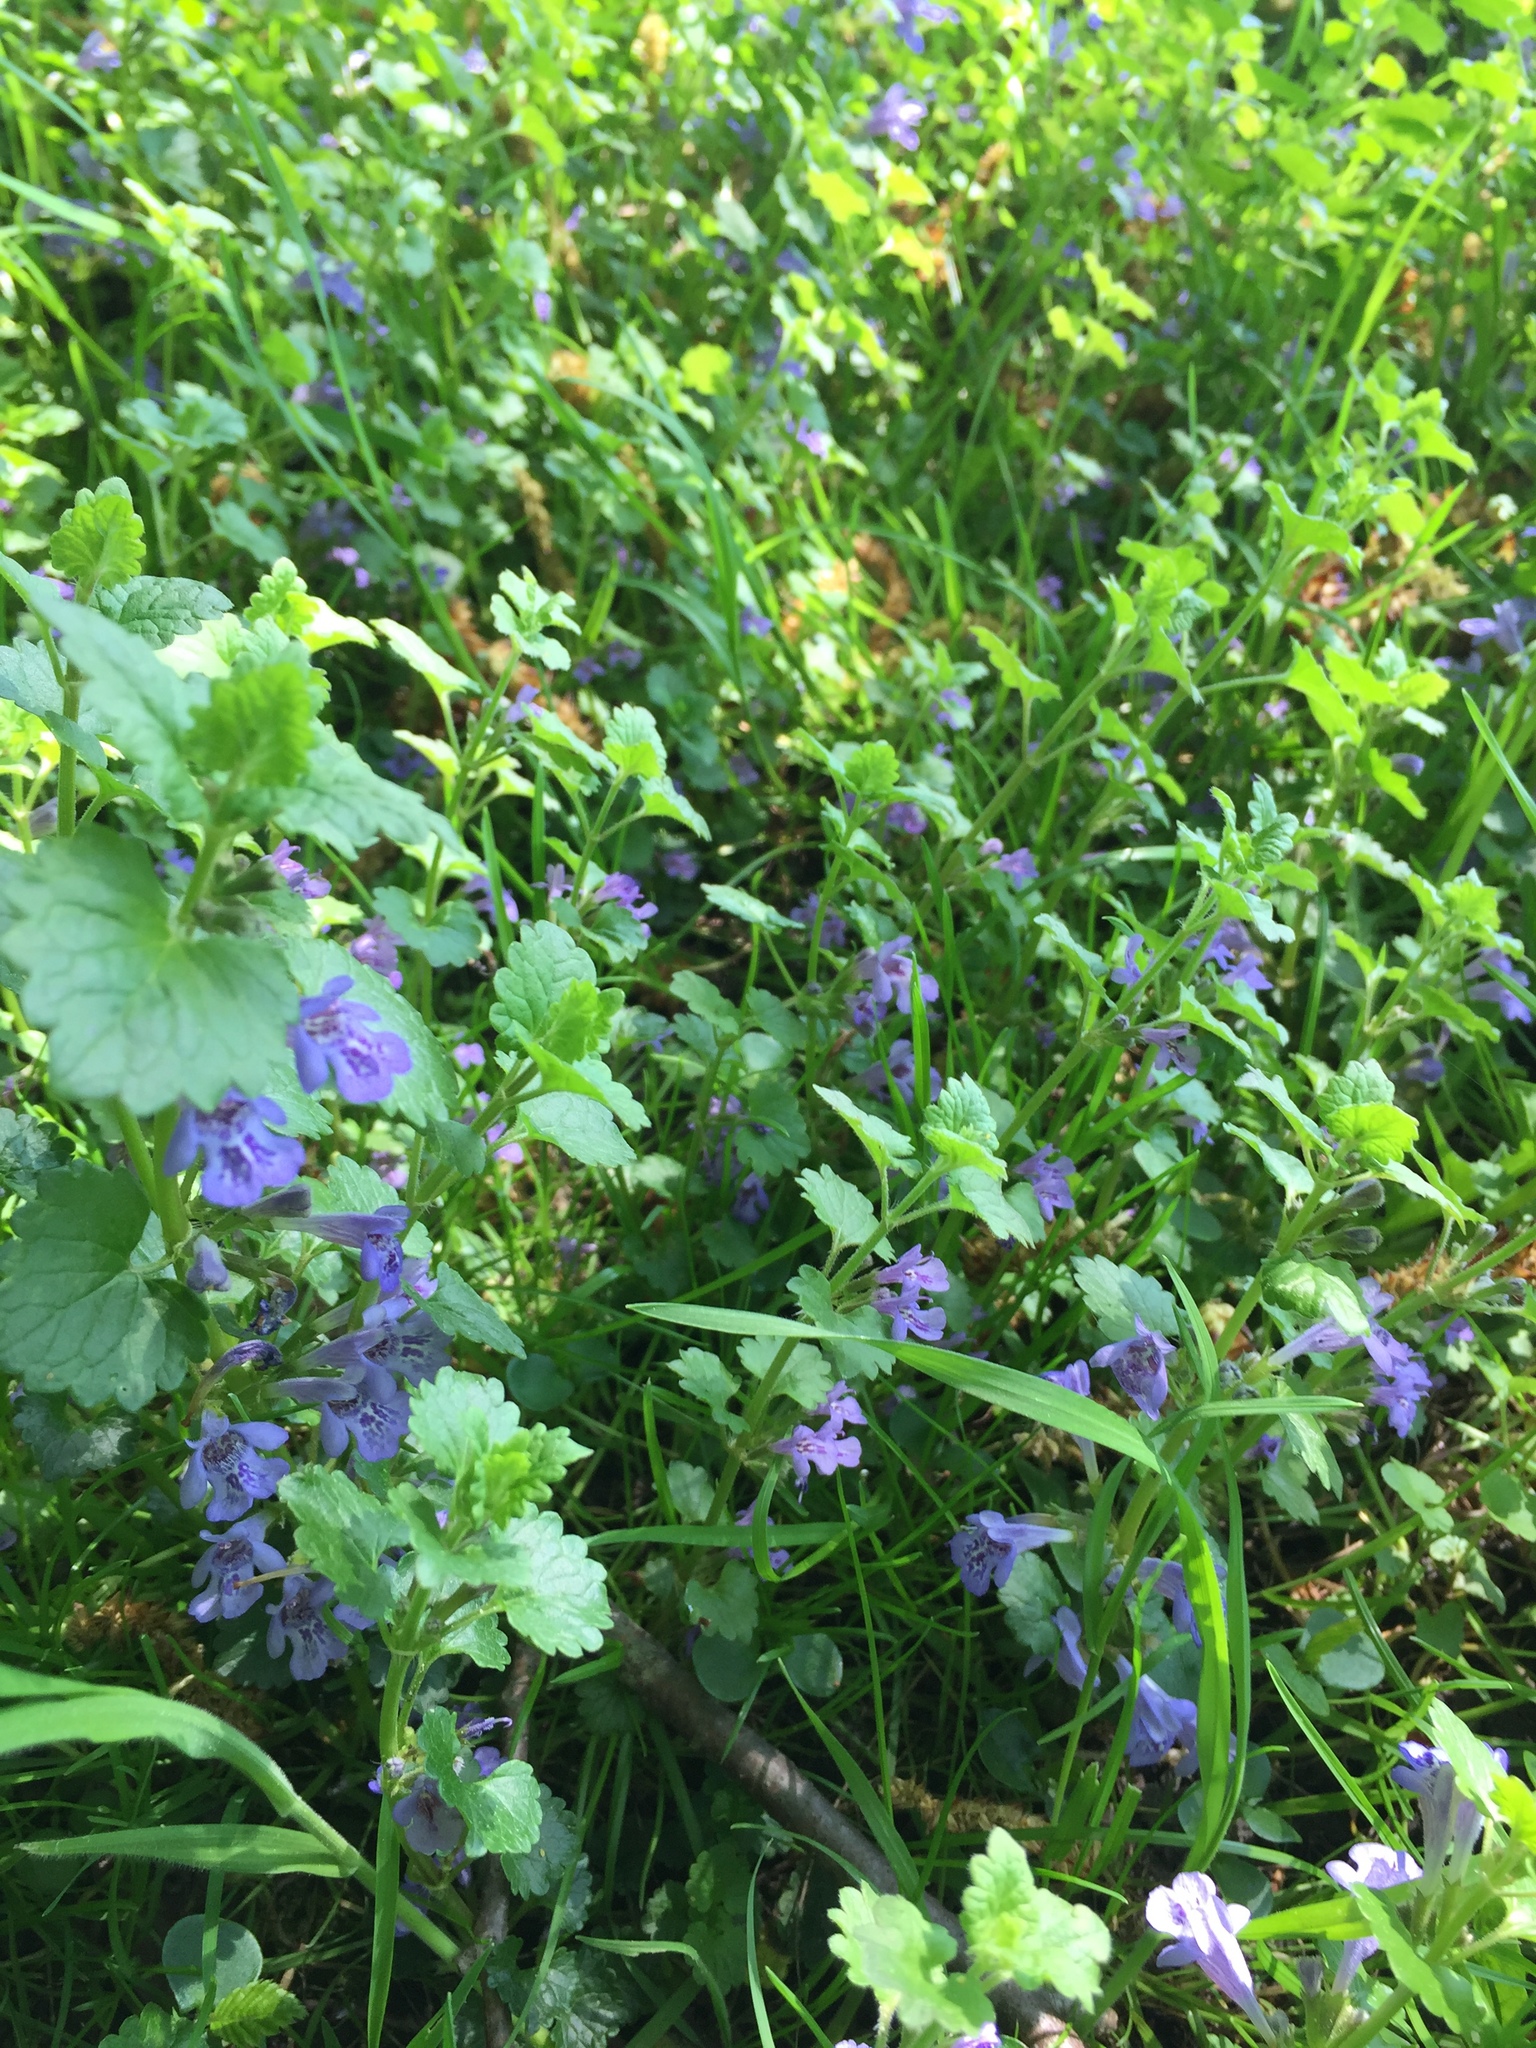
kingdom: Plantae
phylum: Tracheophyta
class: Magnoliopsida
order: Lamiales
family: Lamiaceae
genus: Glechoma
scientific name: Glechoma hederacea
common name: Ground ivy
